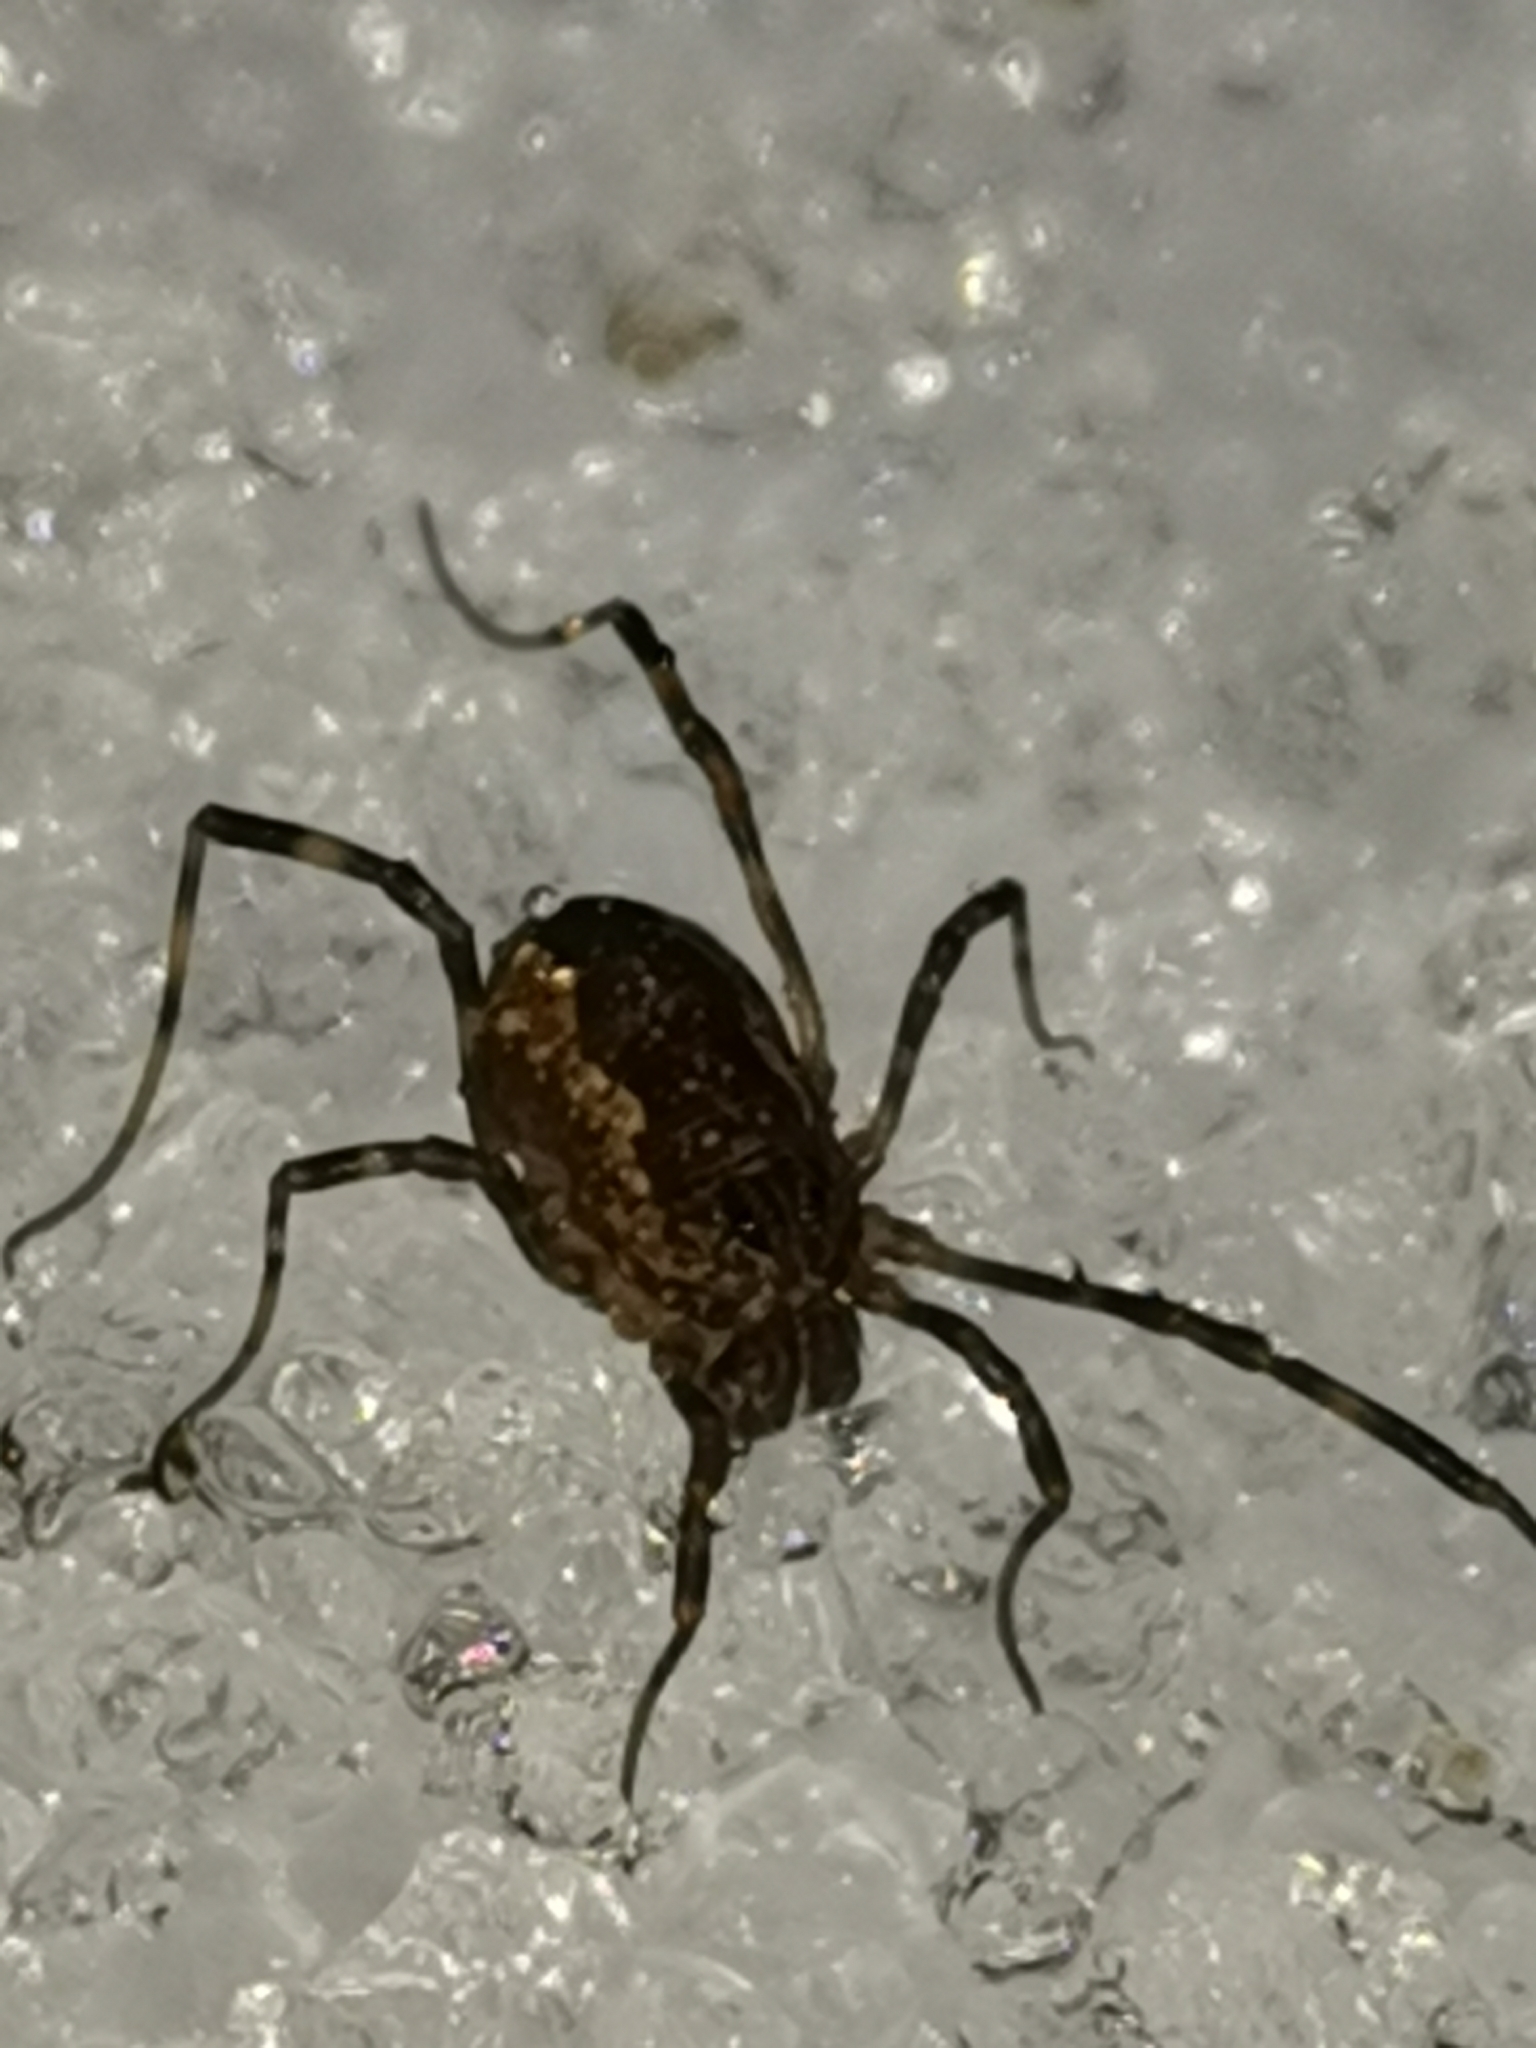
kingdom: Animalia
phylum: Arthropoda
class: Arachnida
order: Opiliones
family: Phalangiidae
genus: Rilaena
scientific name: Rilaena triangularis
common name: Spring harvestman
